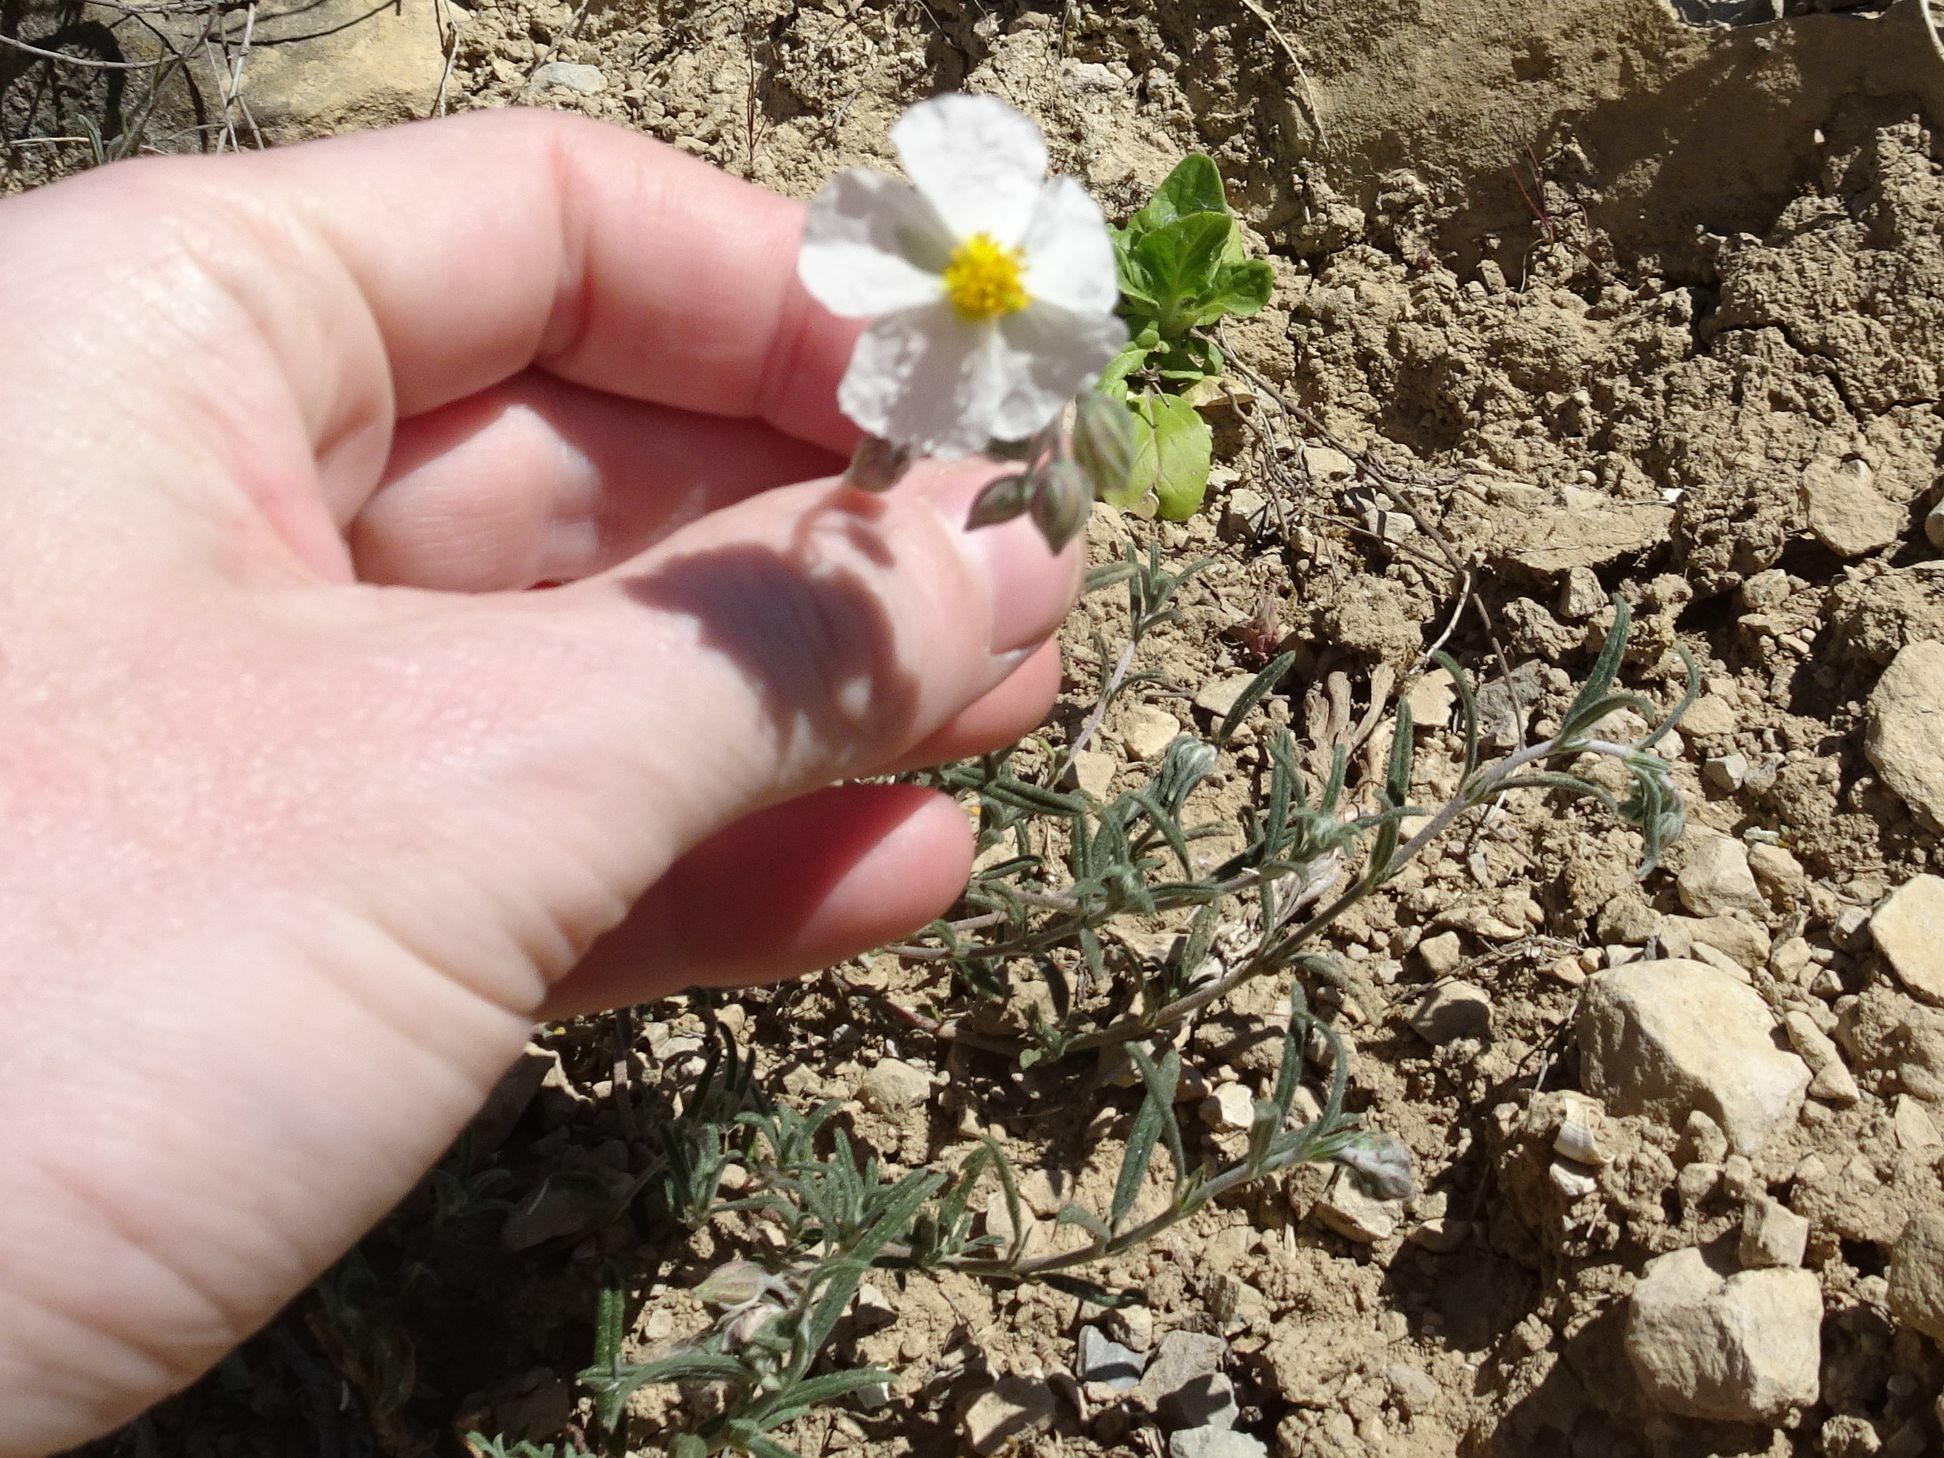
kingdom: Plantae
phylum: Tracheophyta
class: Magnoliopsida
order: Malvales
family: Cistaceae
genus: Helianthemum
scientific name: Helianthemum apenninum
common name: White rock-rose
